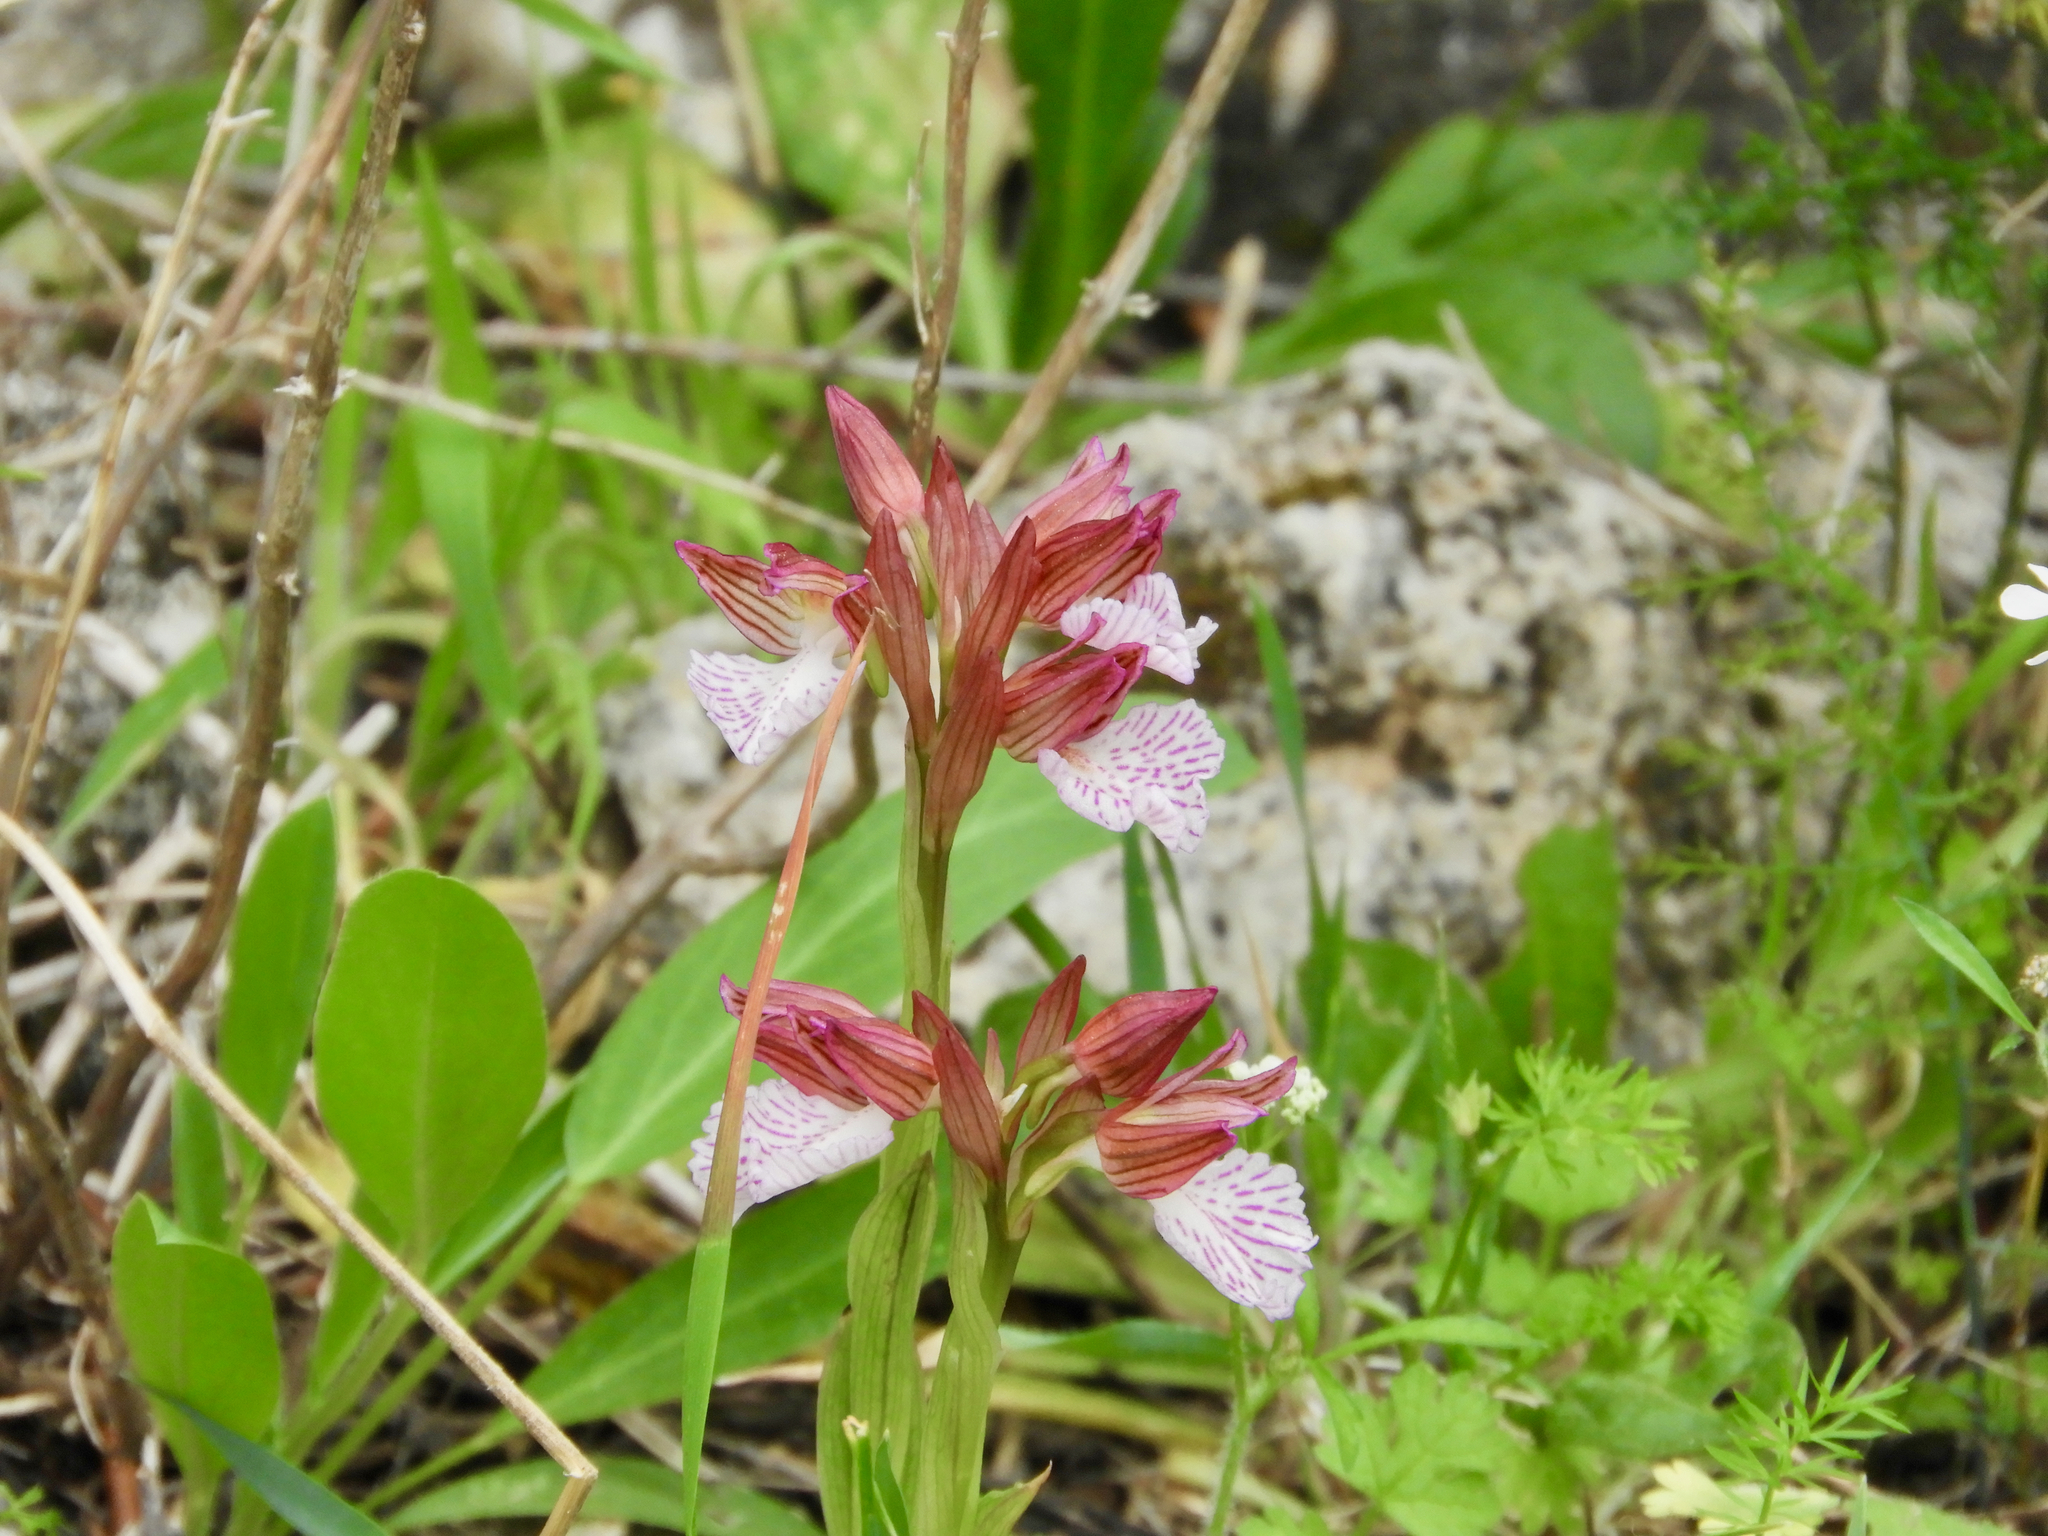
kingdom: Plantae
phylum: Tracheophyta
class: Liliopsida
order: Asparagales
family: Orchidaceae
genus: Anacamptis
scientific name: Anacamptis papilionacea
